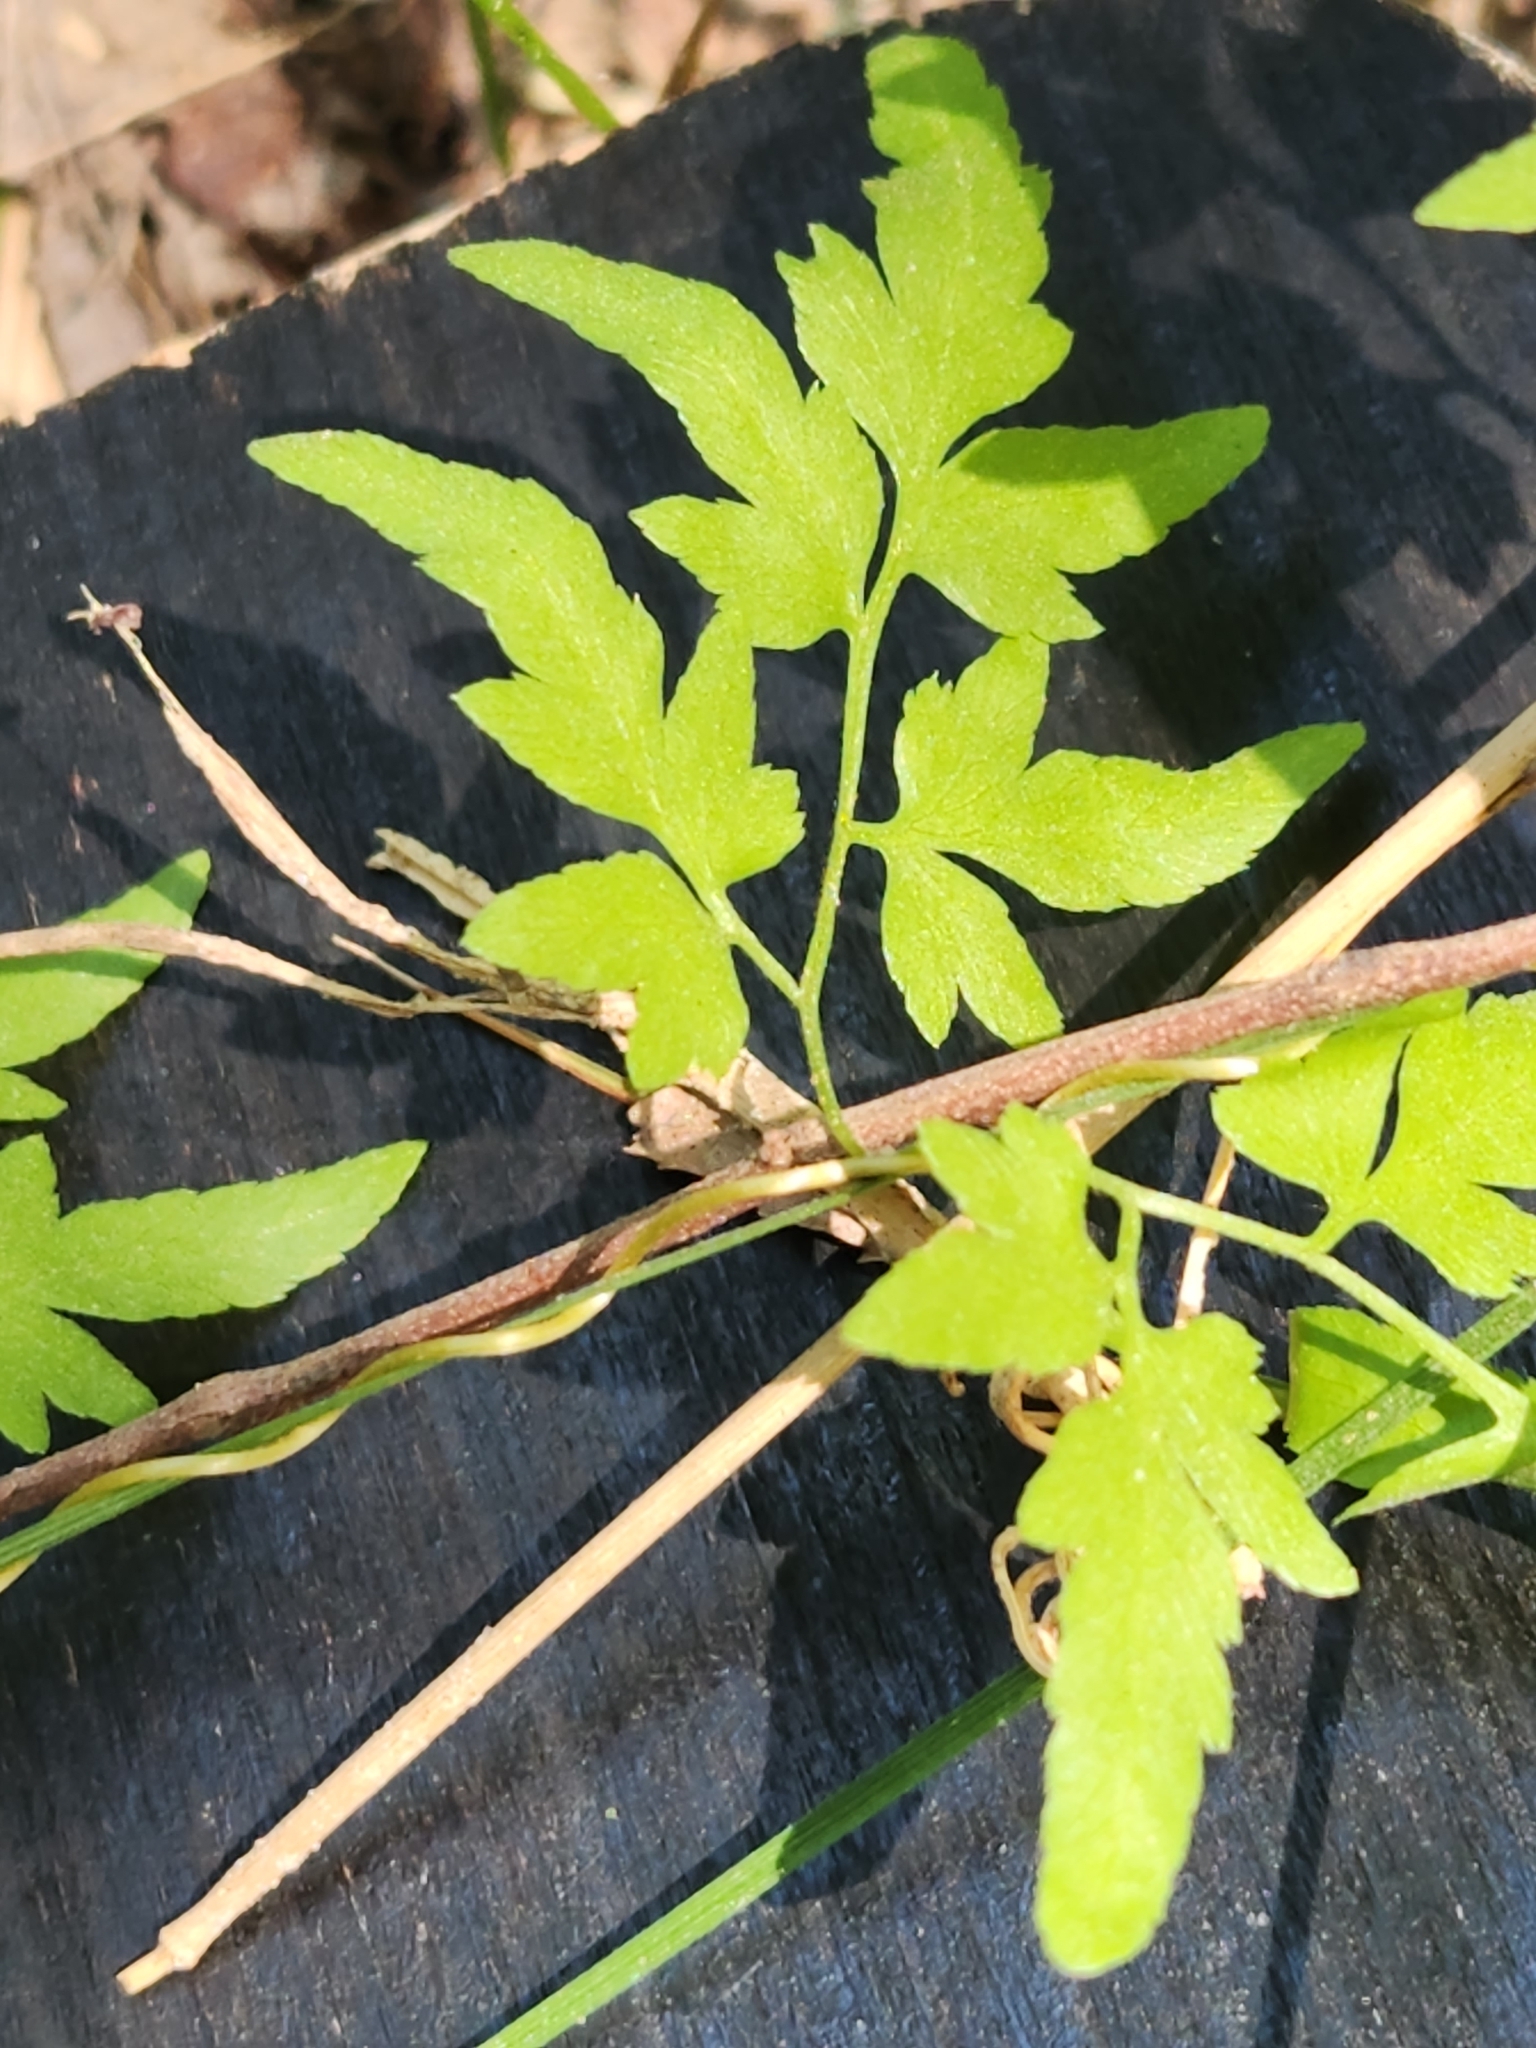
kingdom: Plantae
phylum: Tracheophyta
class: Polypodiopsida
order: Schizaeales
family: Lygodiaceae
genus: Lygodium
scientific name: Lygodium japonicum
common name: Japanese climbing fern
